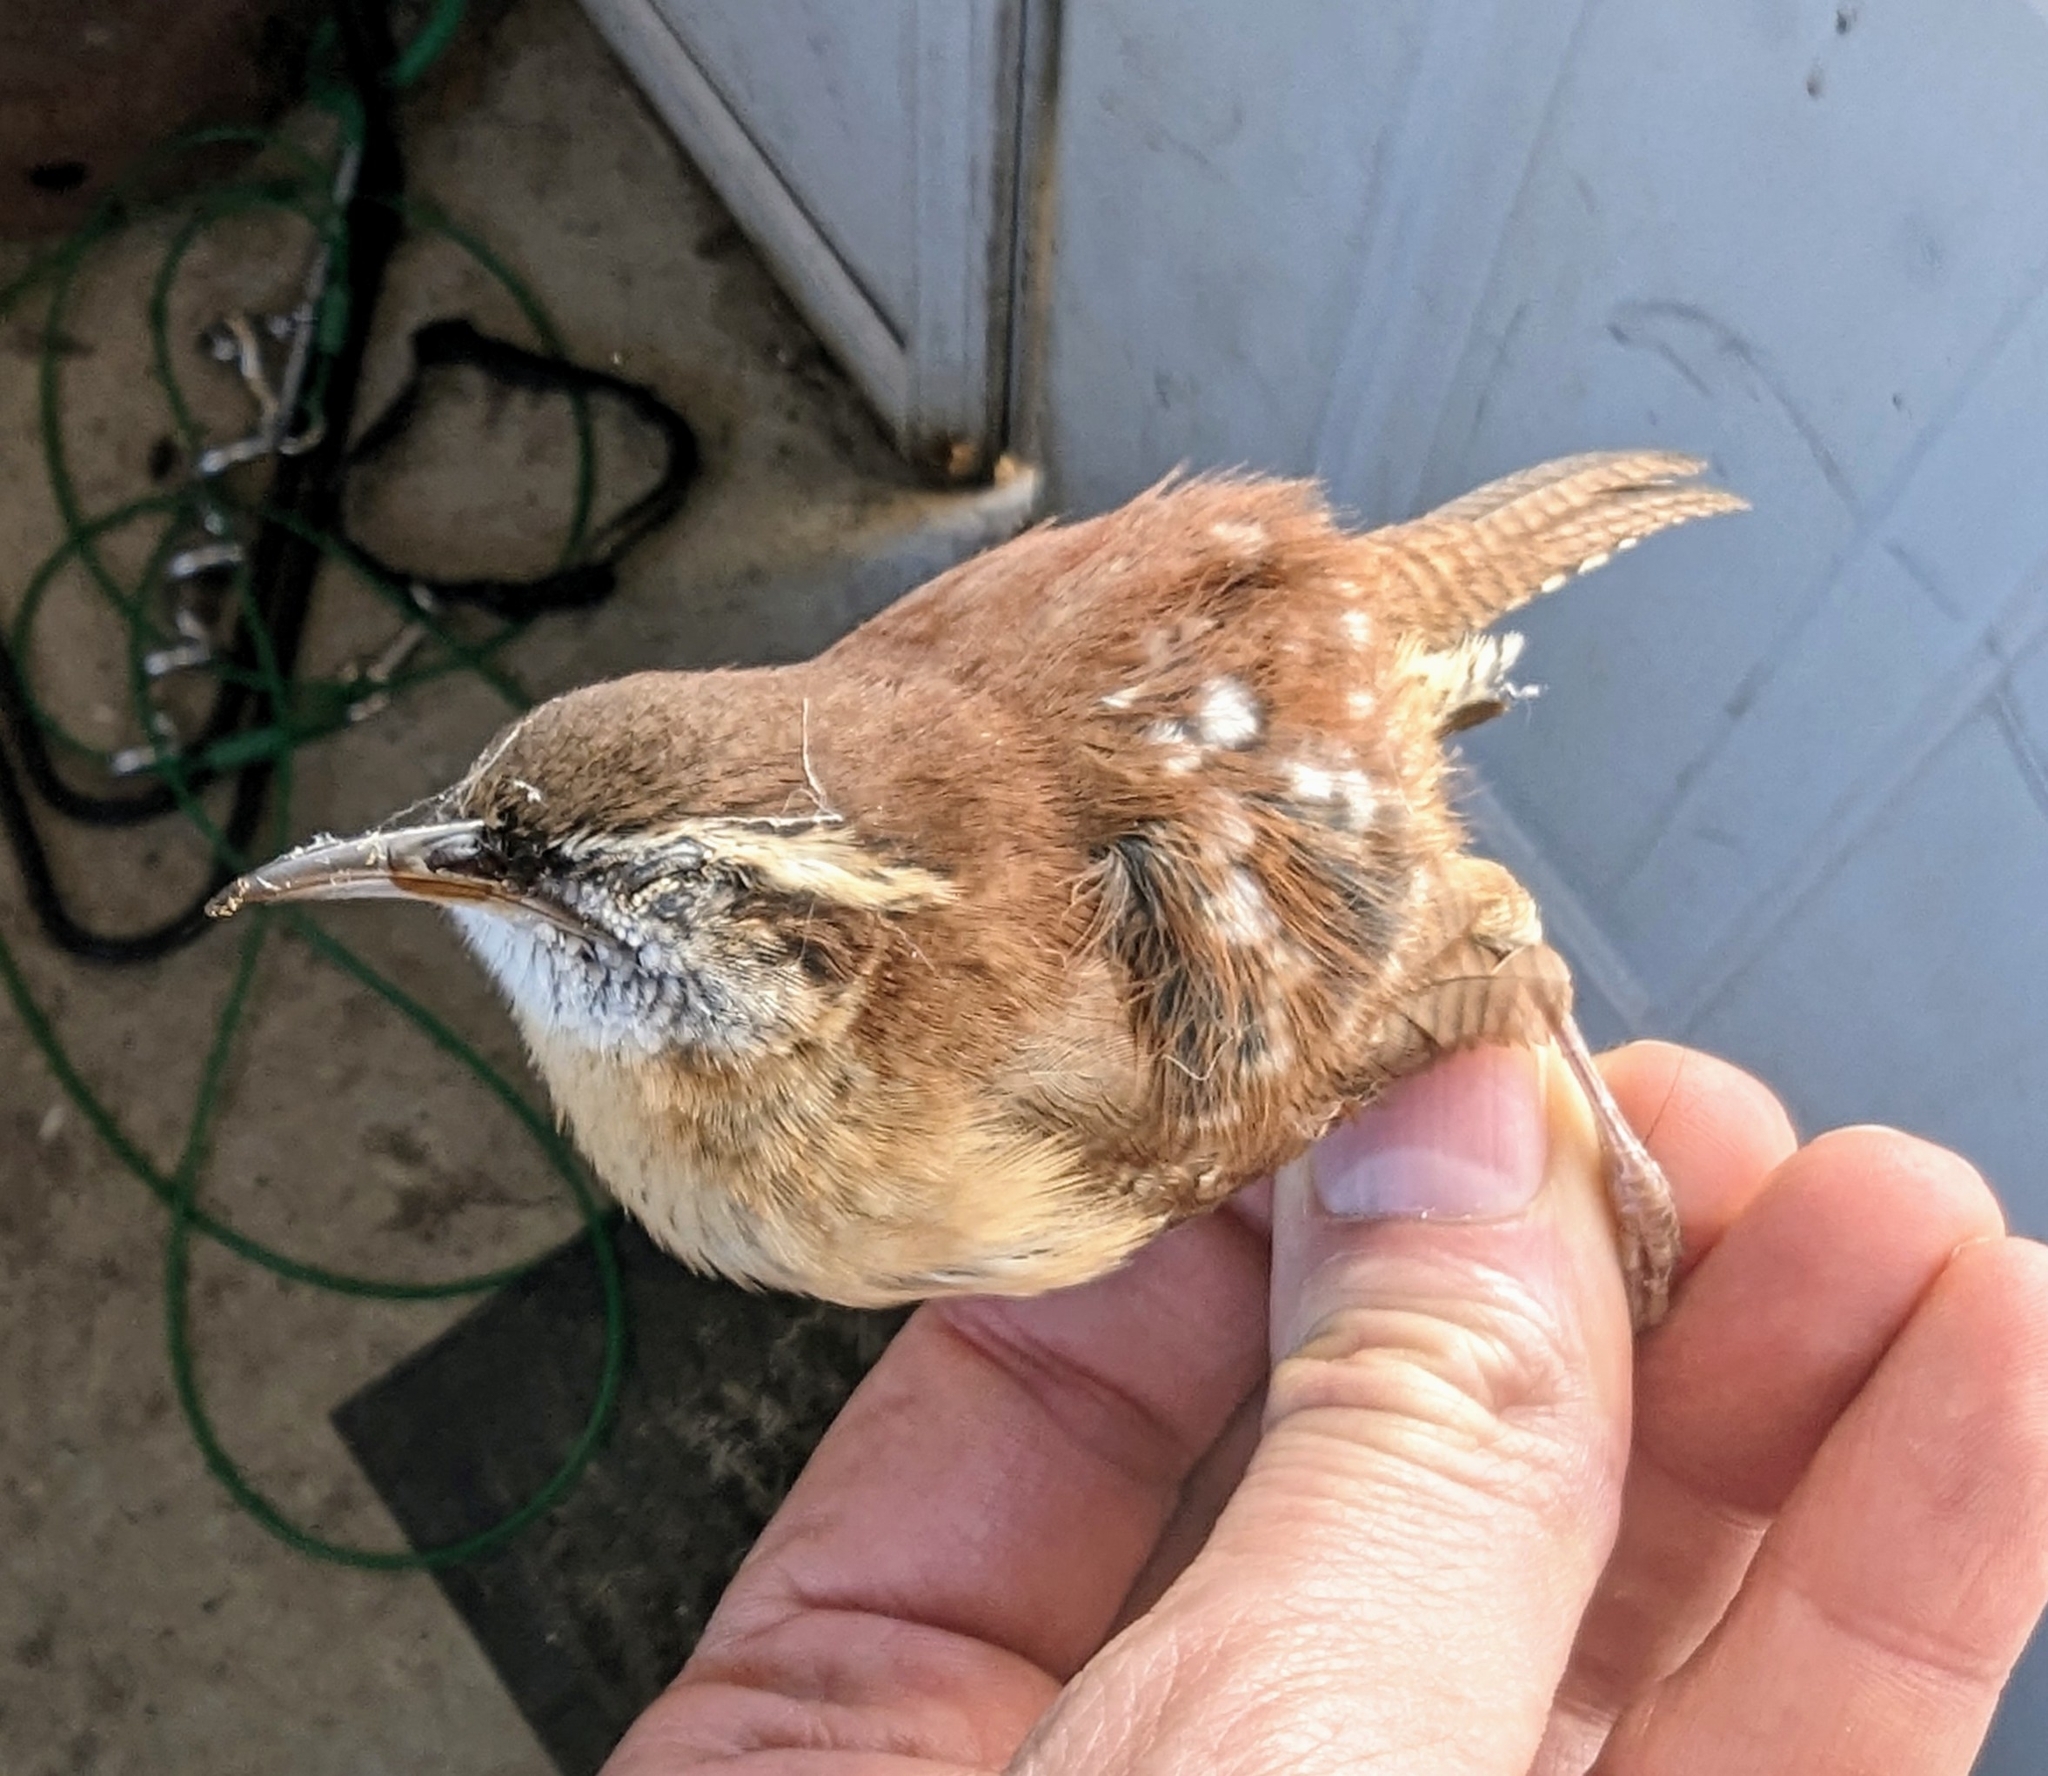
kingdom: Animalia
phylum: Chordata
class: Aves
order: Passeriformes
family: Troglodytidae
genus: Thryothorus
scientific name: Thryothorus ludovicianus
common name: Carolina wren
